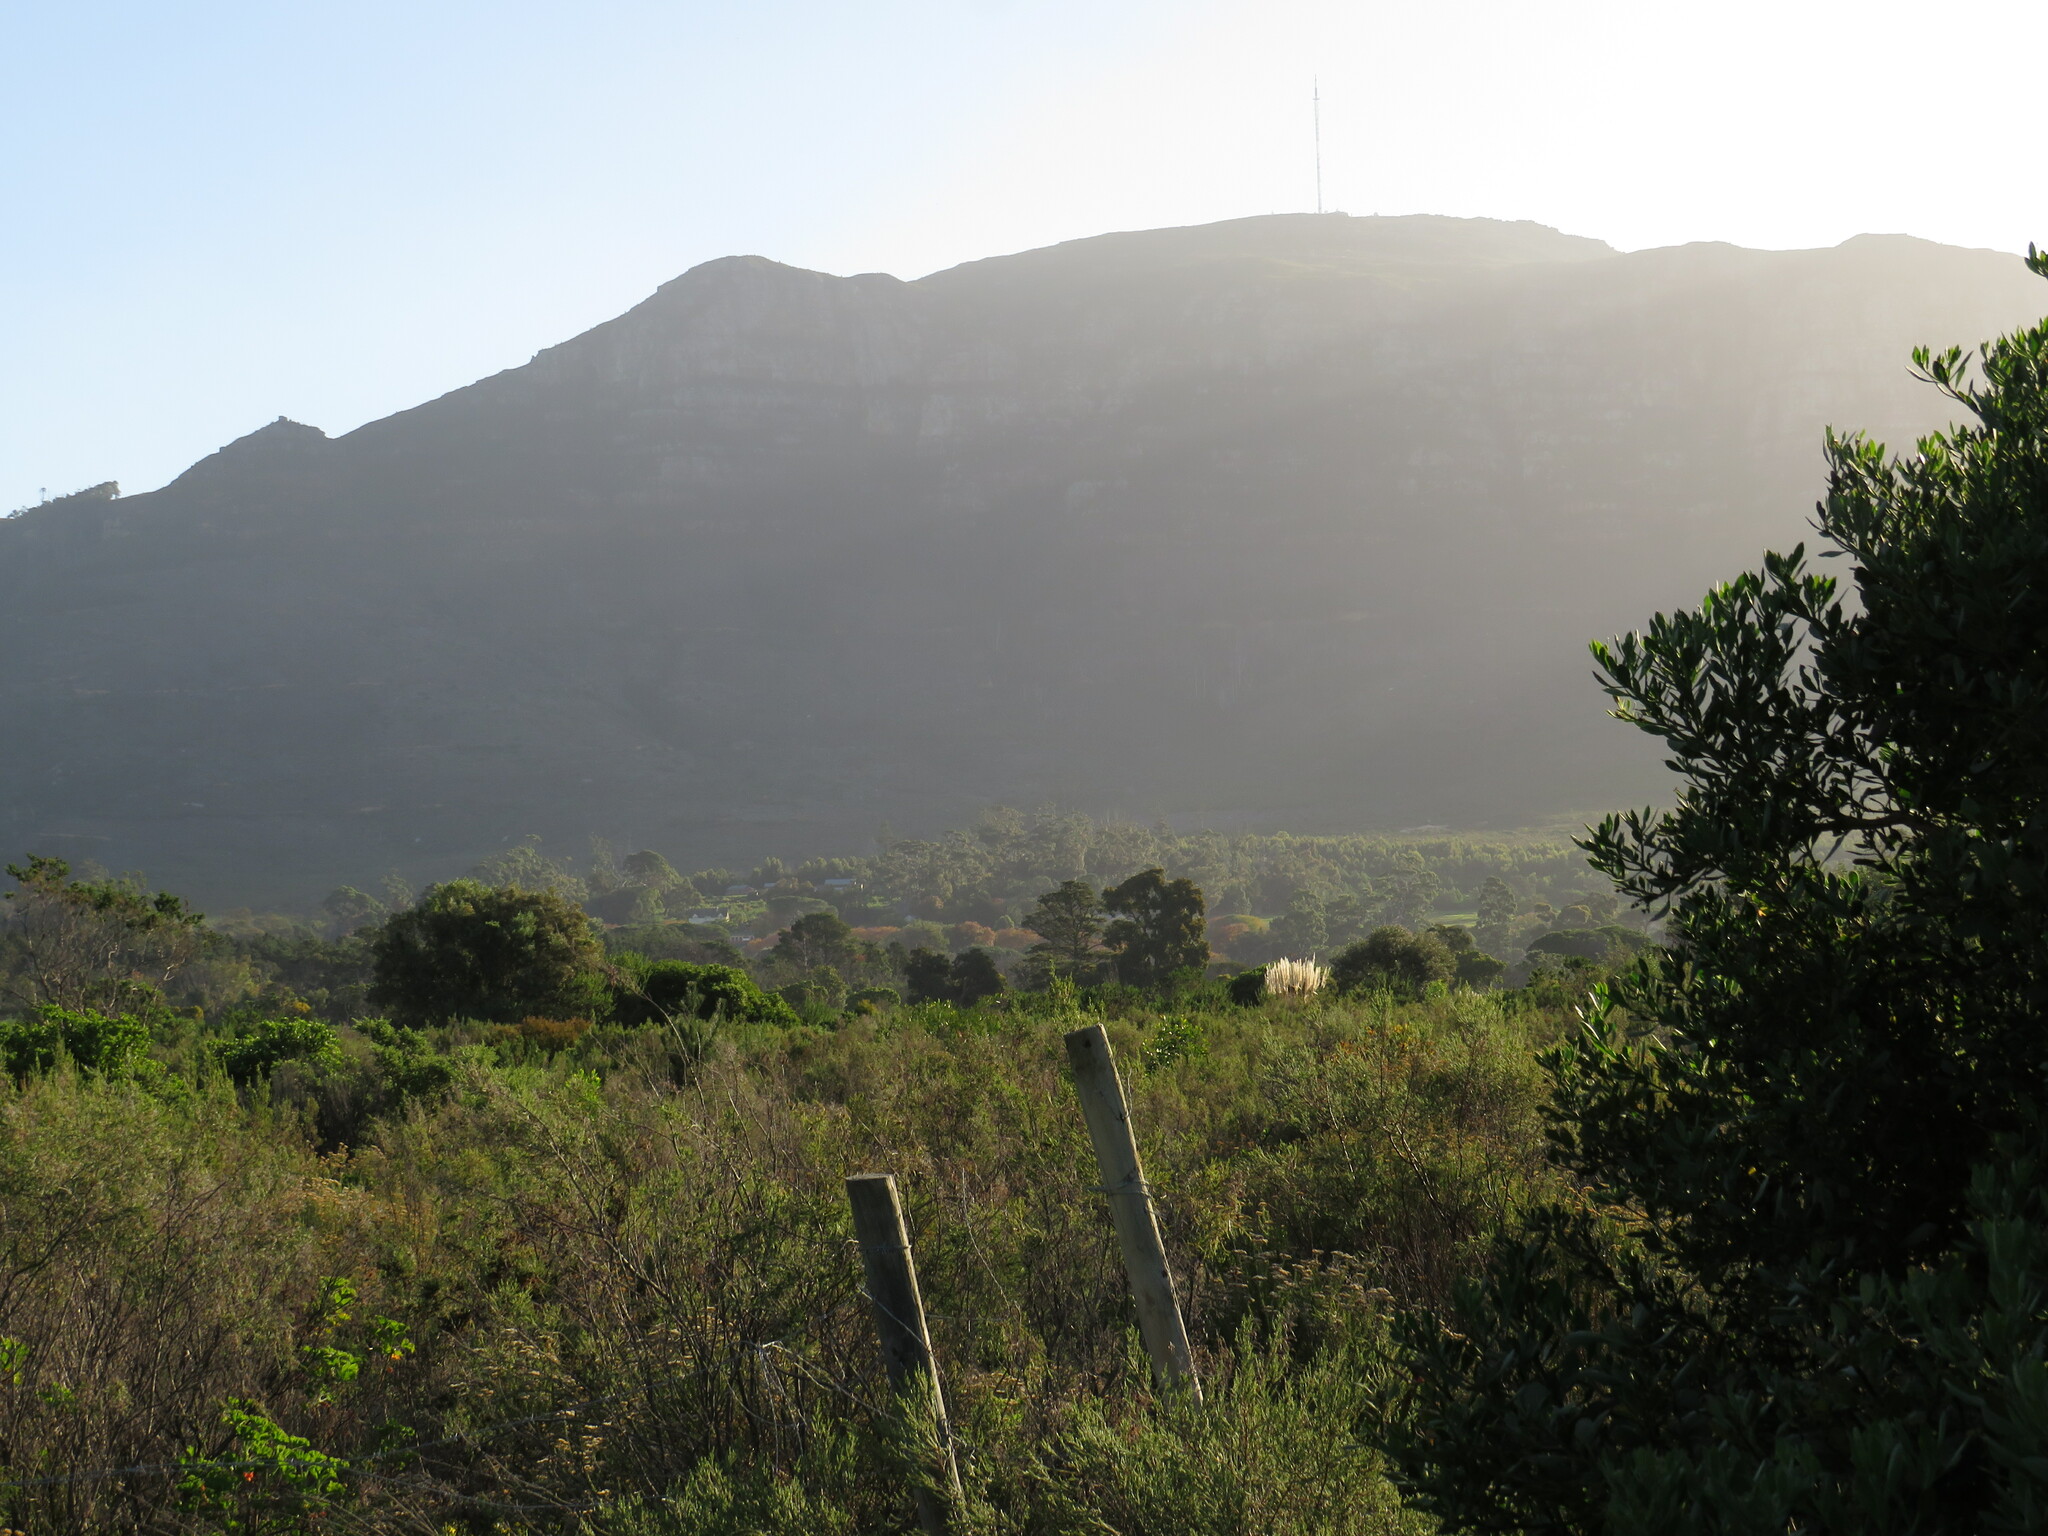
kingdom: Plantae
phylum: Tracheophyta
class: Magnoliopsida
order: Malvales
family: Thymelaeaceae
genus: Passerina
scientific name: Passerina corymbosa
